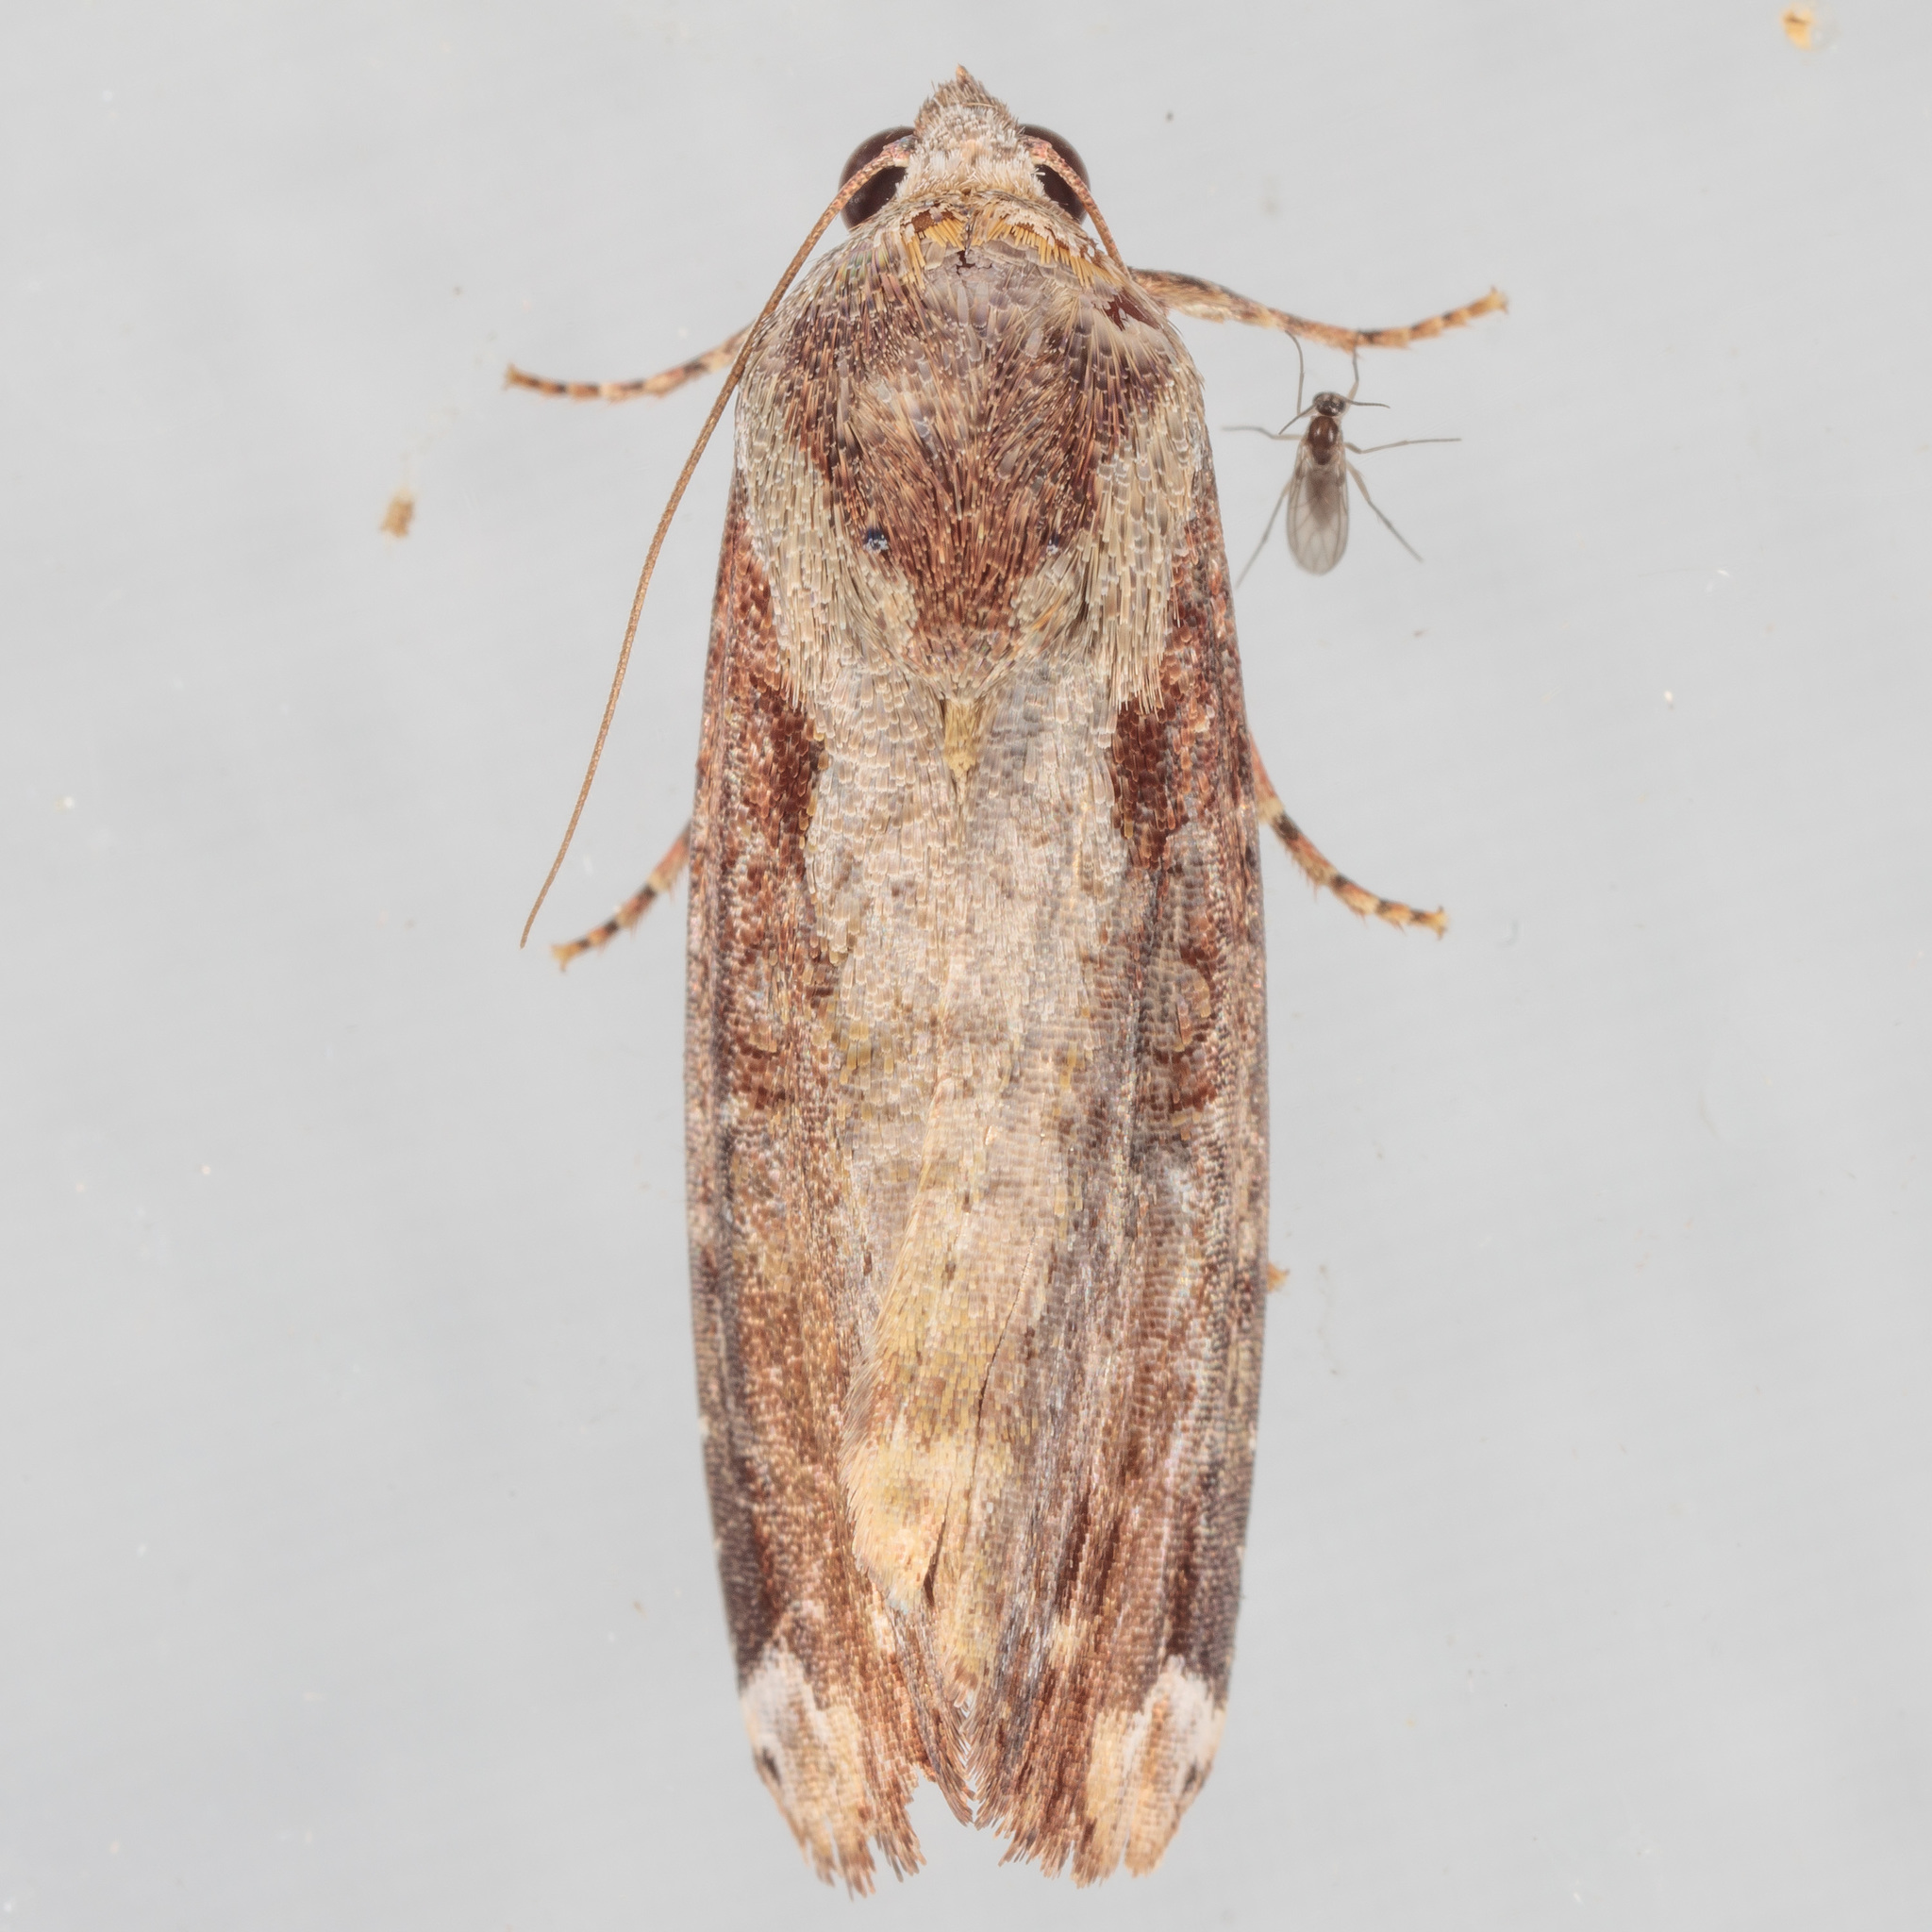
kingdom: Animalia
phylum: Arthropoda
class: Insecta
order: Lepidoptera
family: Noctuidae
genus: Magusa
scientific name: Magusa divaricata
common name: Orb narrow-winged moth
